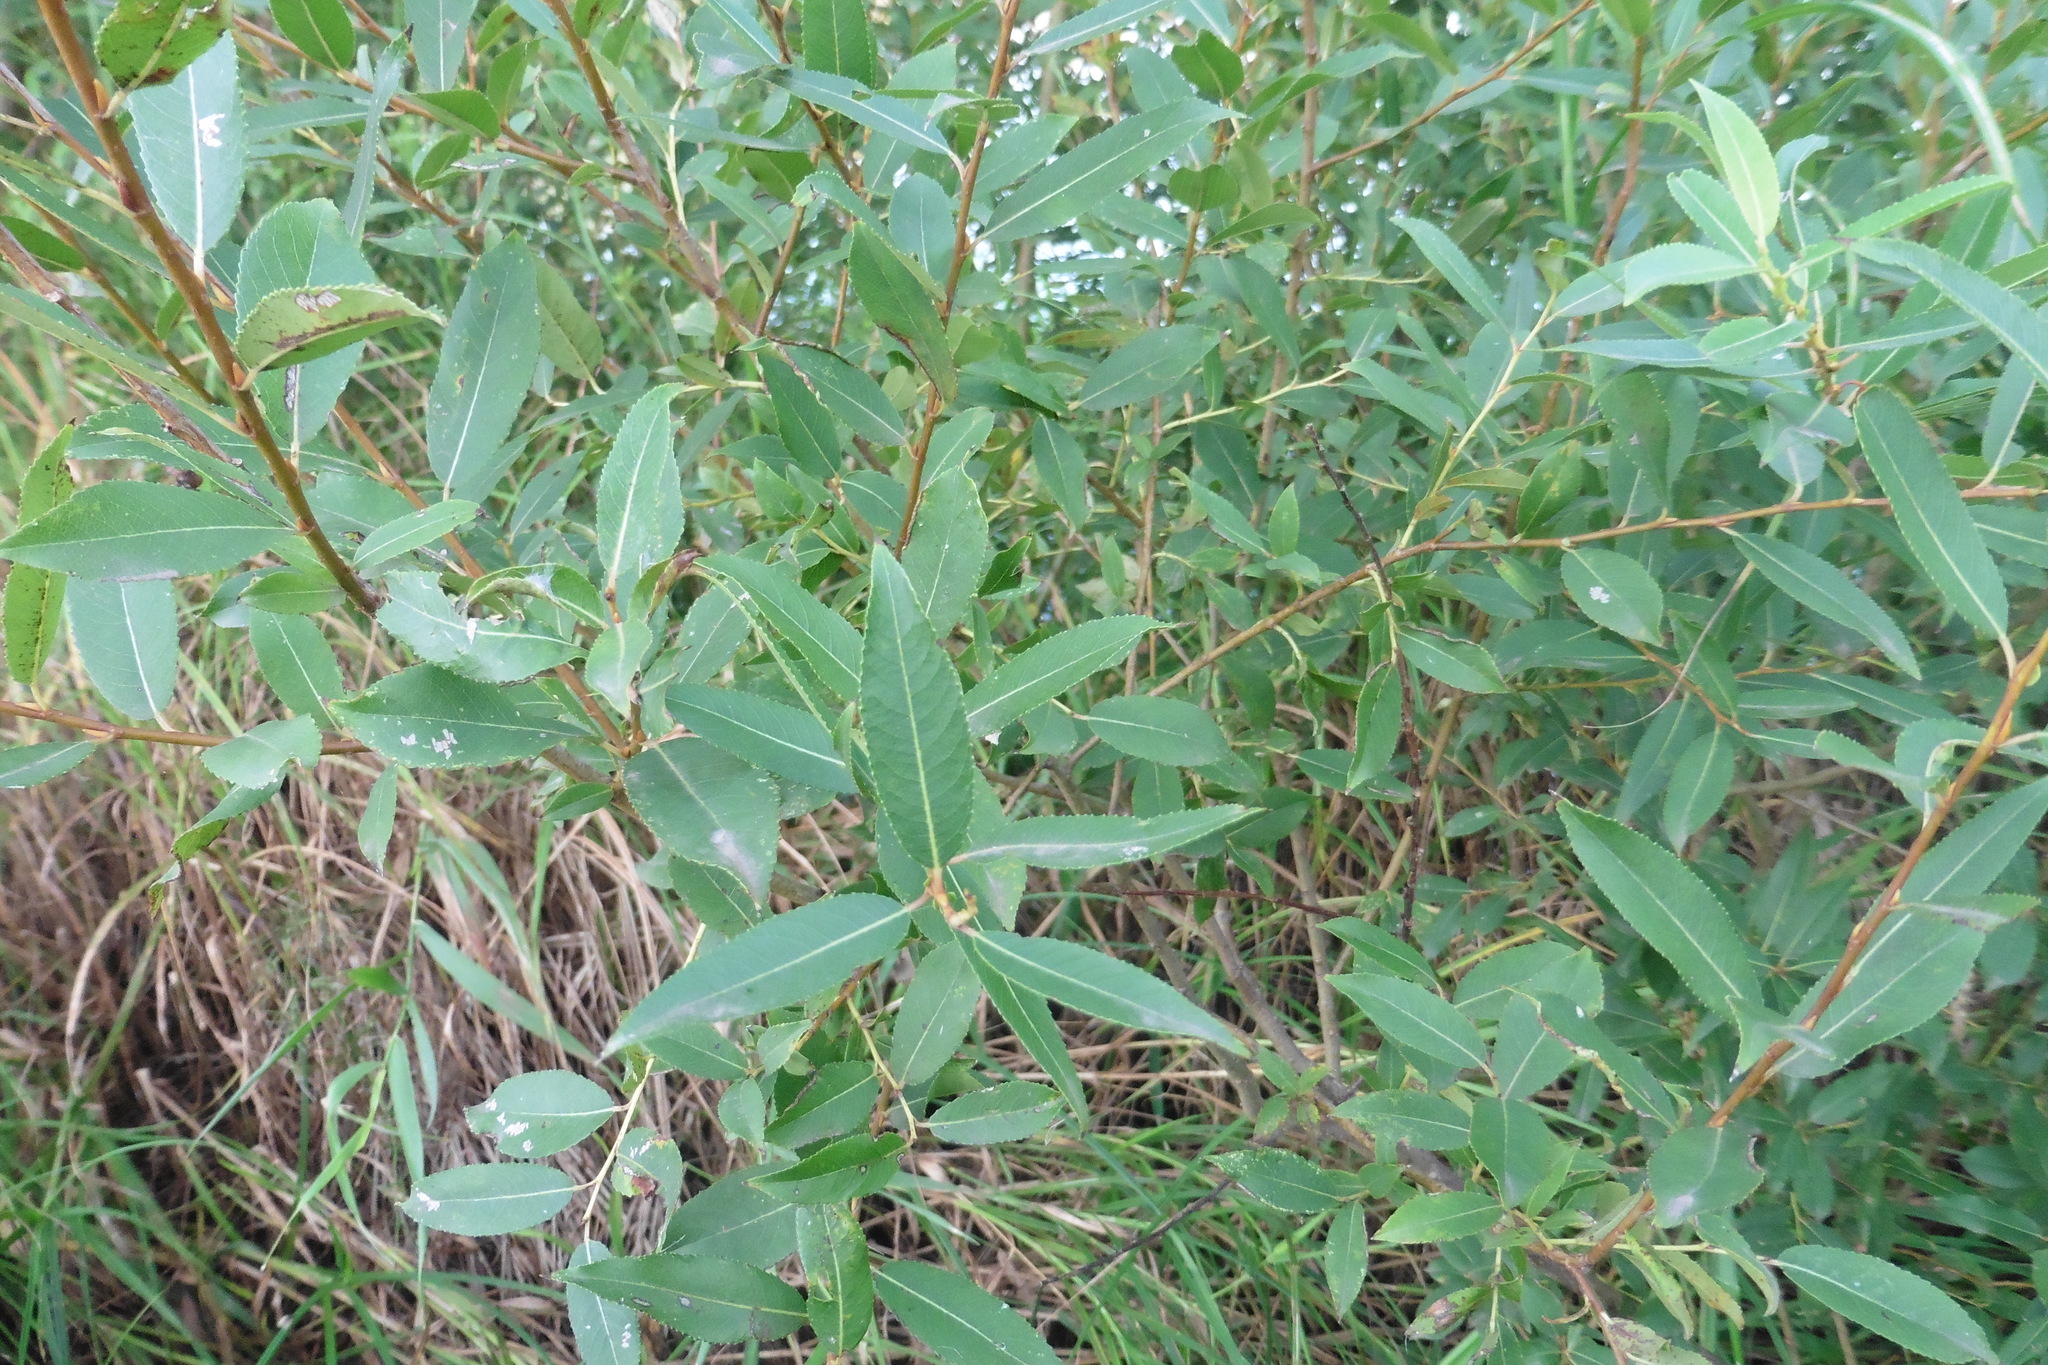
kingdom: Plantae
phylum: Tracheophyta
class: Magnoliopsida
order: Malpighiales
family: Salicaceae
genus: Salix
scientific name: Salix triandra
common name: Almond willow
